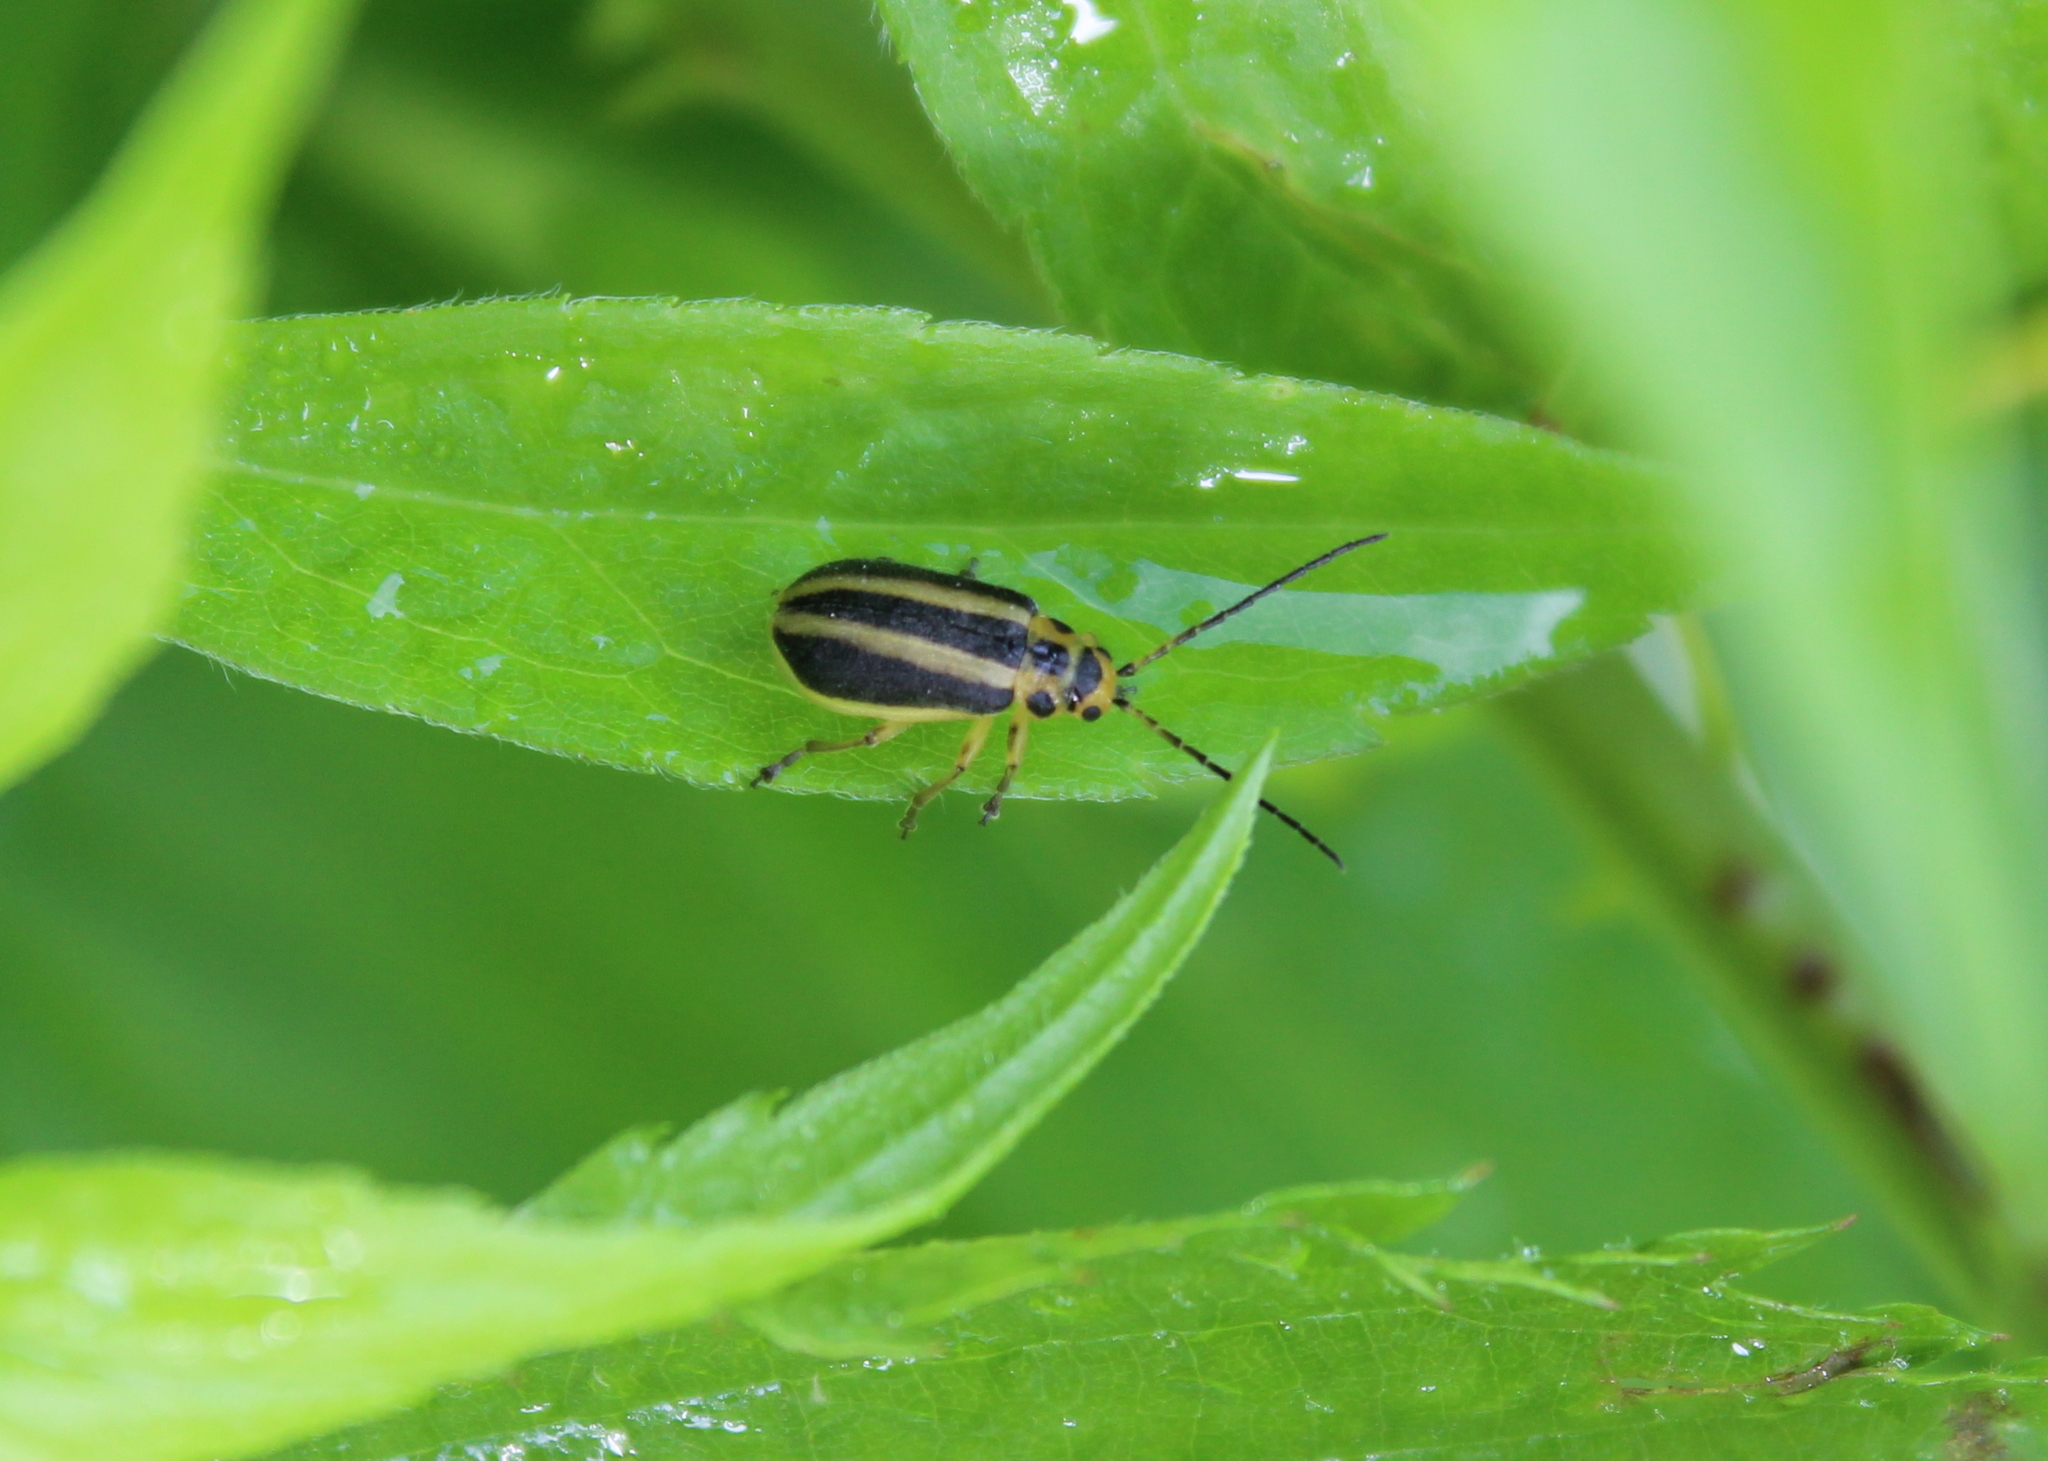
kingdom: Animalia
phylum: Arthropoda
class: Insecta
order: Coleoptera
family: Chrysomelidae
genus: Trirhabda
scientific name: Trirhabda canadensis
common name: Goldenrod leaf beetle
